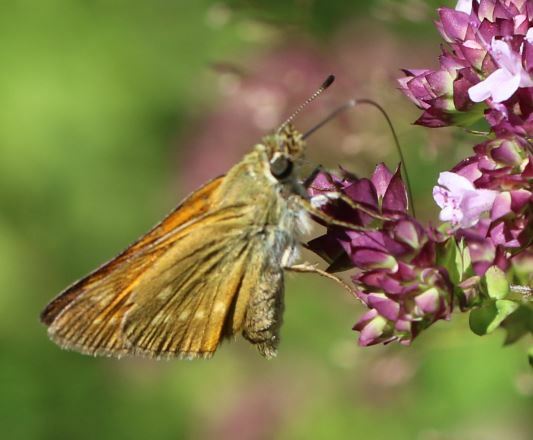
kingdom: Animalia
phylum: Arthropoda
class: Insecta
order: Lepidoptera
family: Hesperiidae
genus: Ochlodes
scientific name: Ochlodes venata
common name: Large skipper
